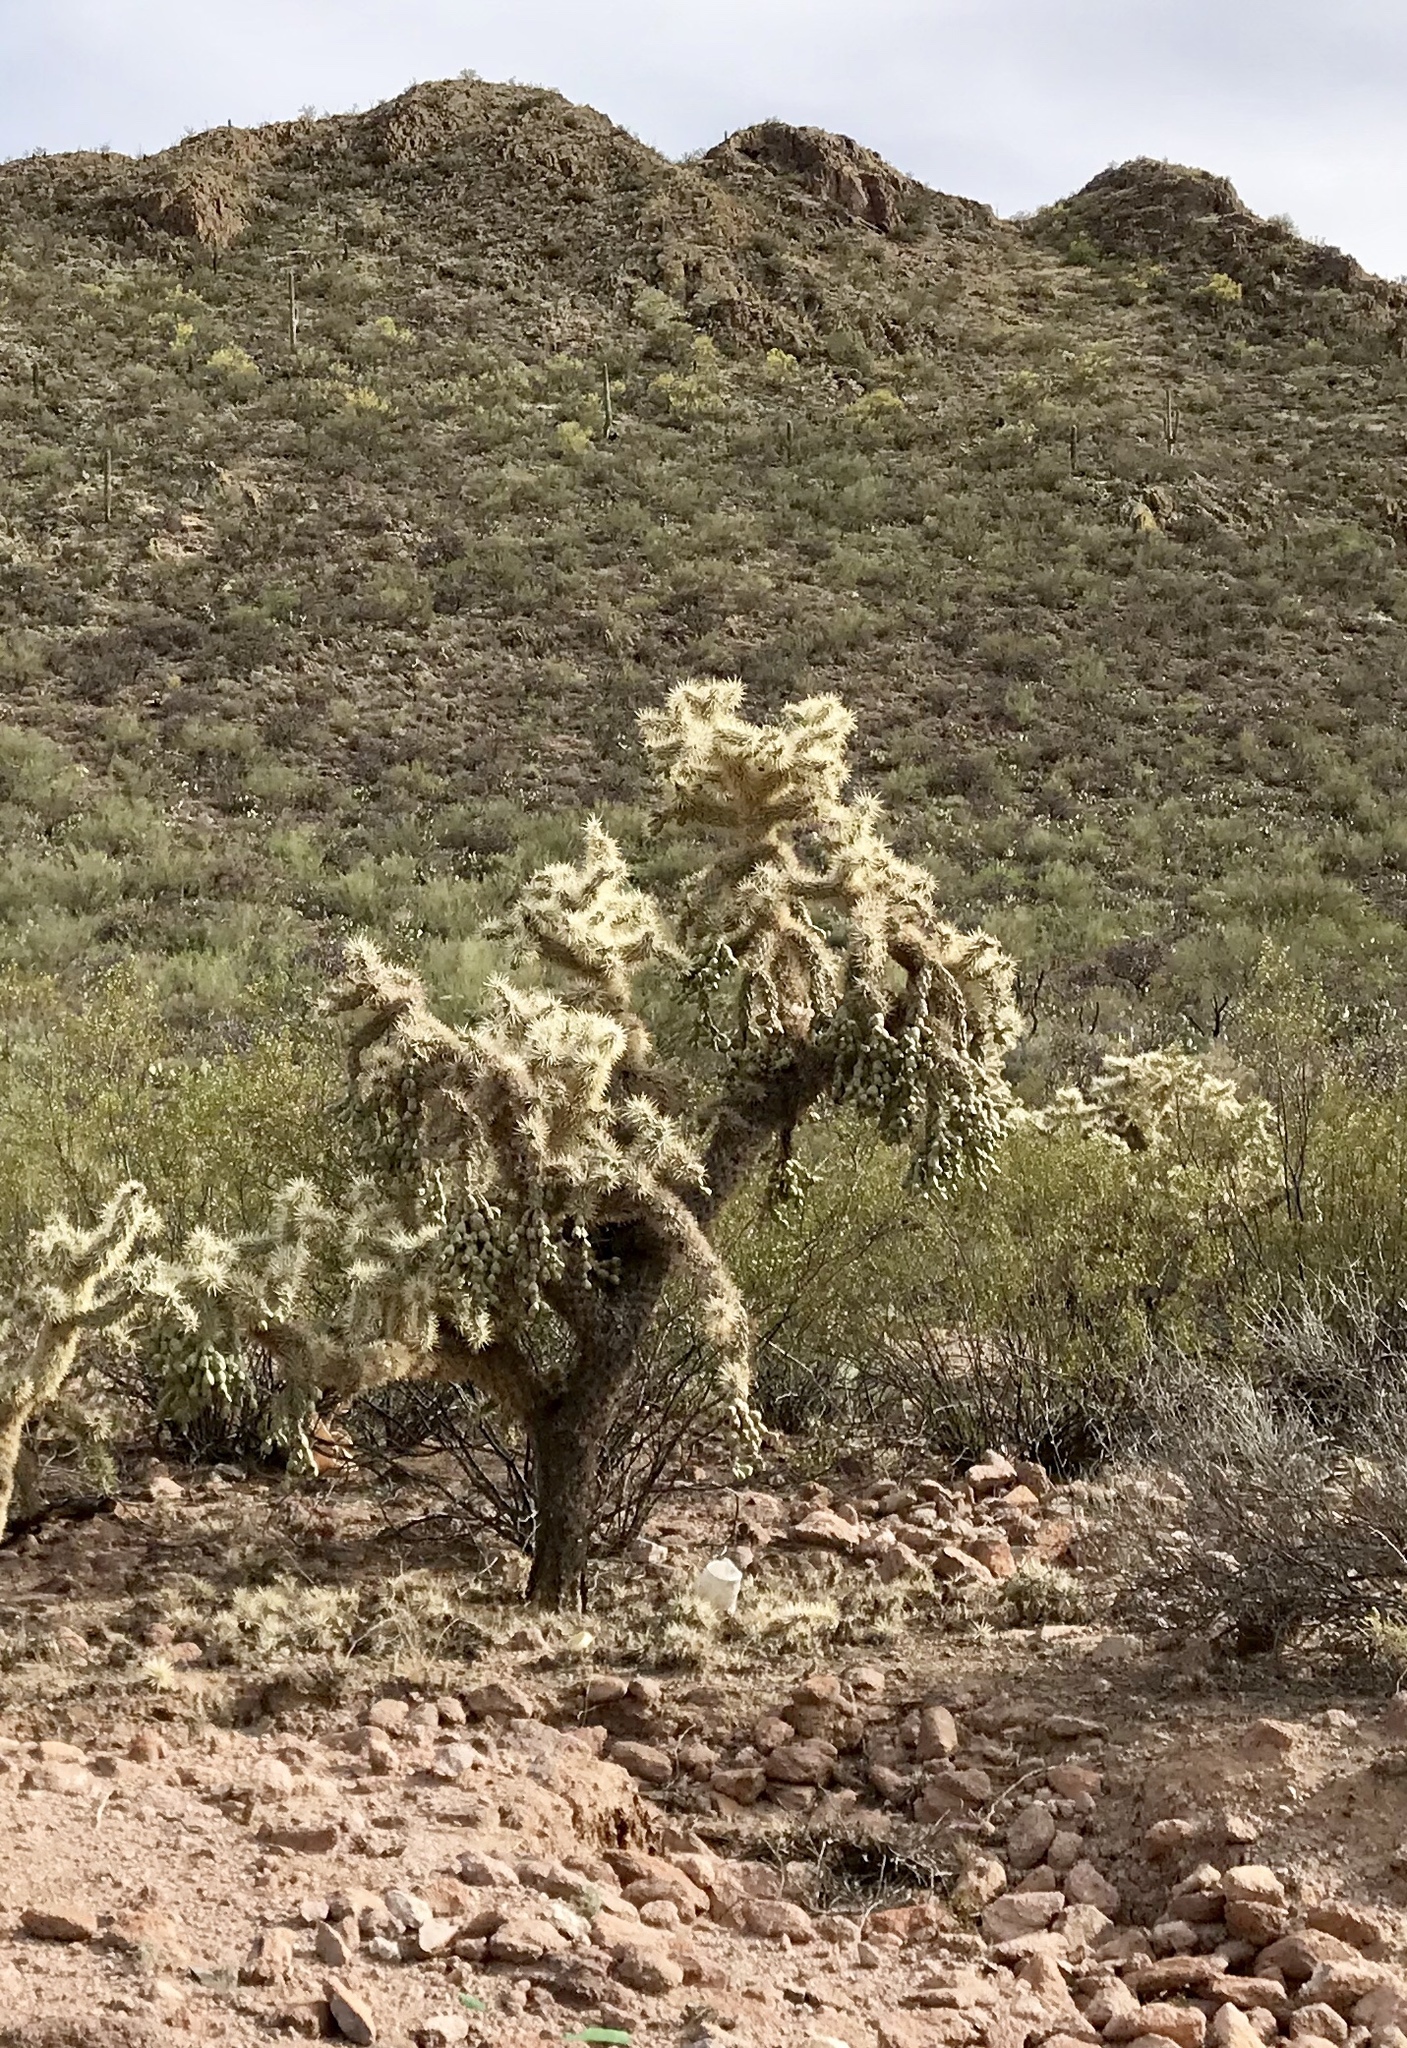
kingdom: Plantae
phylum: Tracheophyta
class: Magnoliopsida
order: Caryophyllales
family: Cactaceae
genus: Cylindropuntia
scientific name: Cylindropuntia fulgida
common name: Jumping cholla
